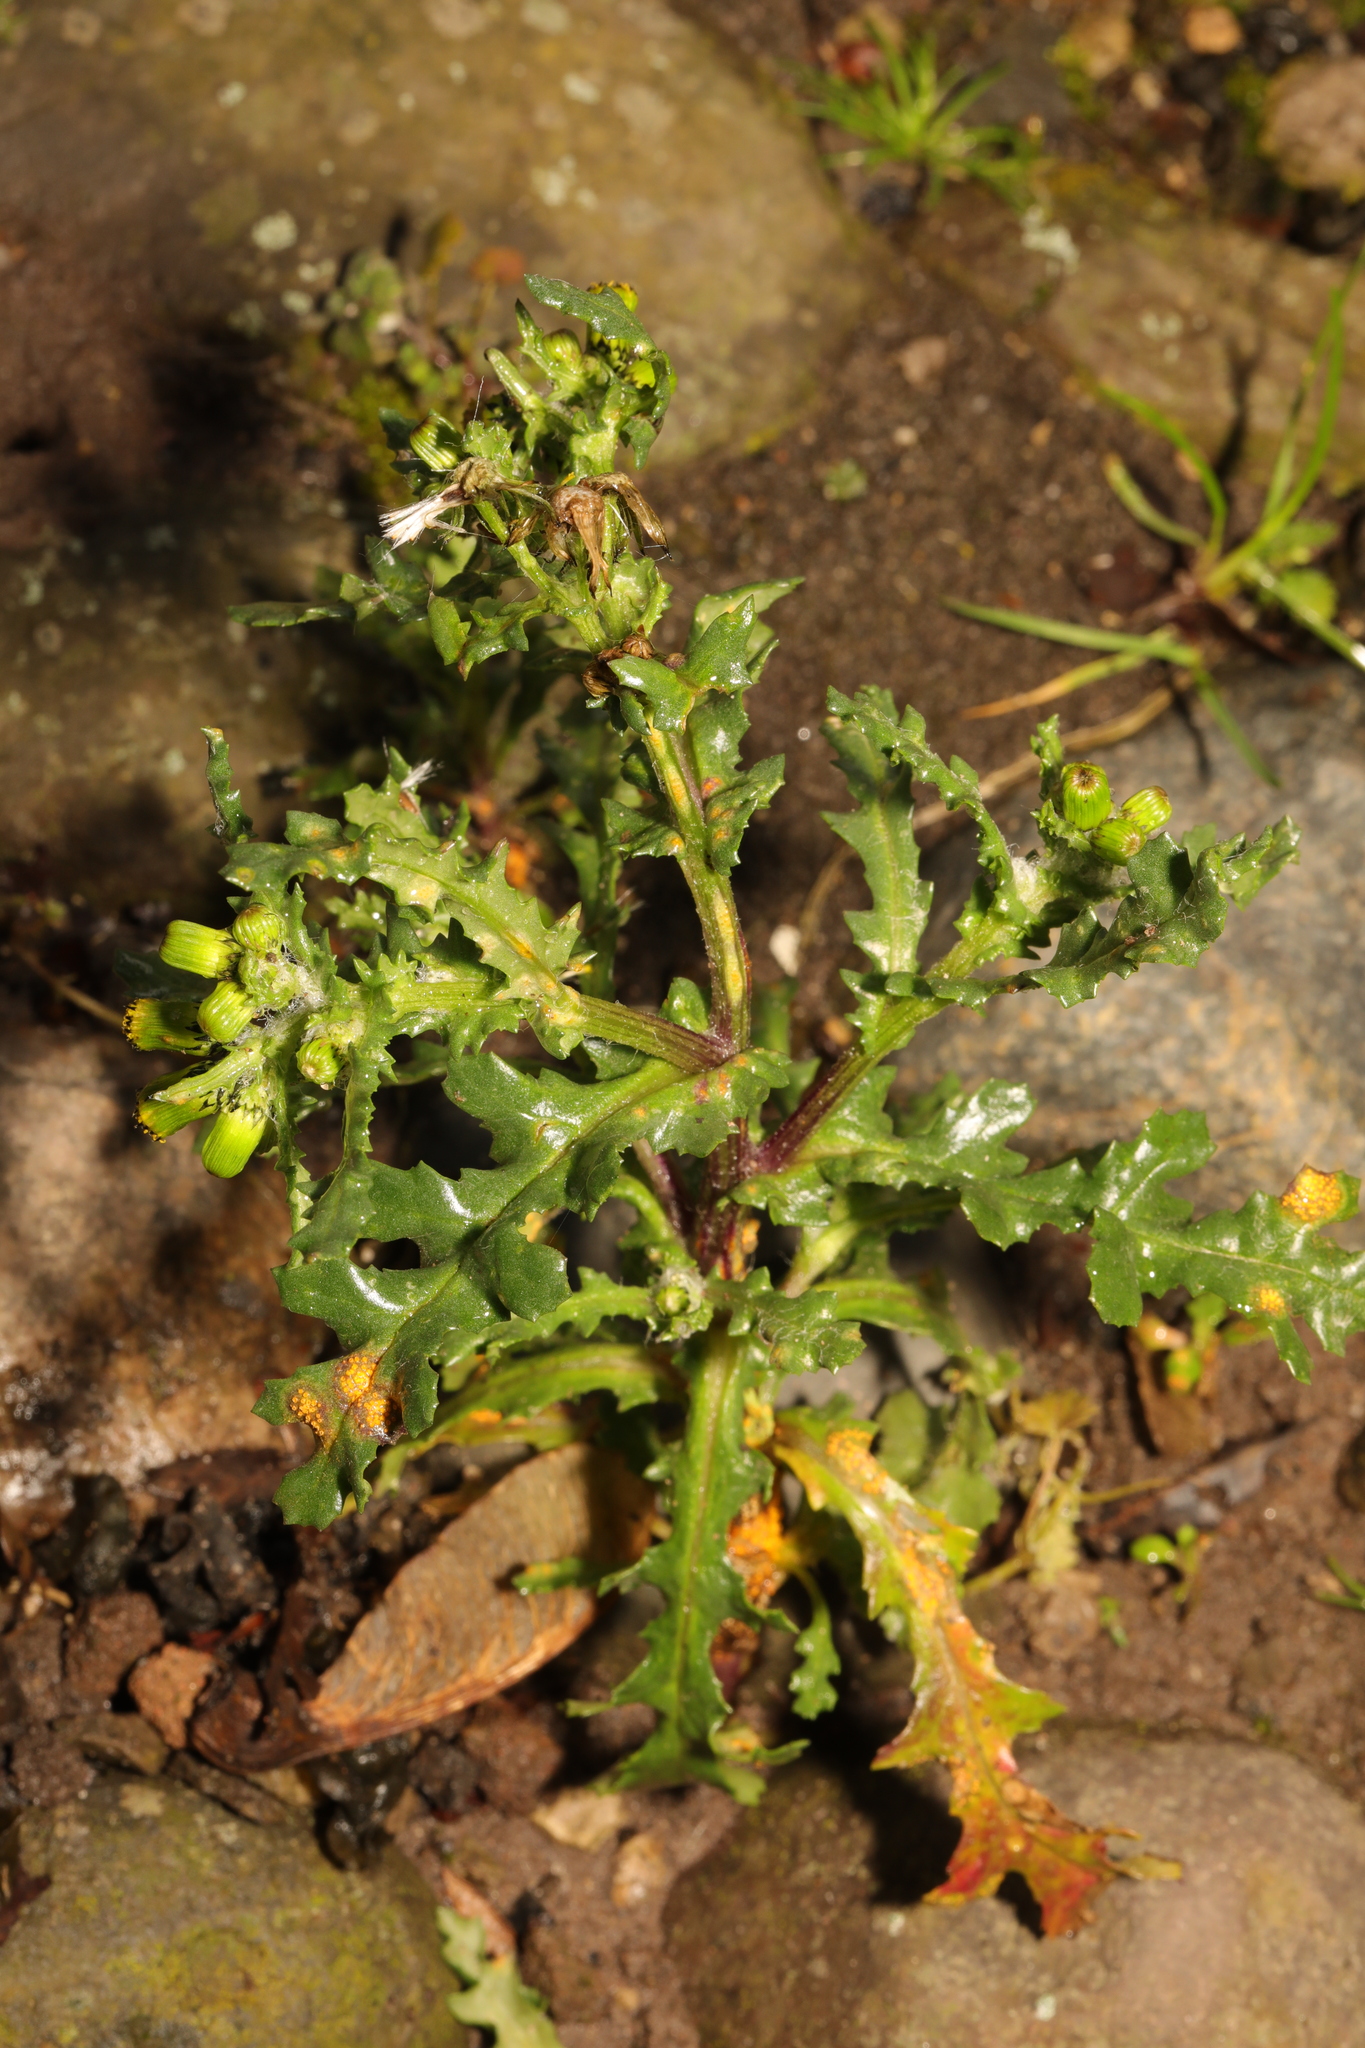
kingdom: Plantae
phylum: Tracheophyta
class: Magnoliopsida
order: Asterales
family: Asteraceae
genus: Senecio
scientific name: Senecio vulgaris
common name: Old-man-in-the-spring
